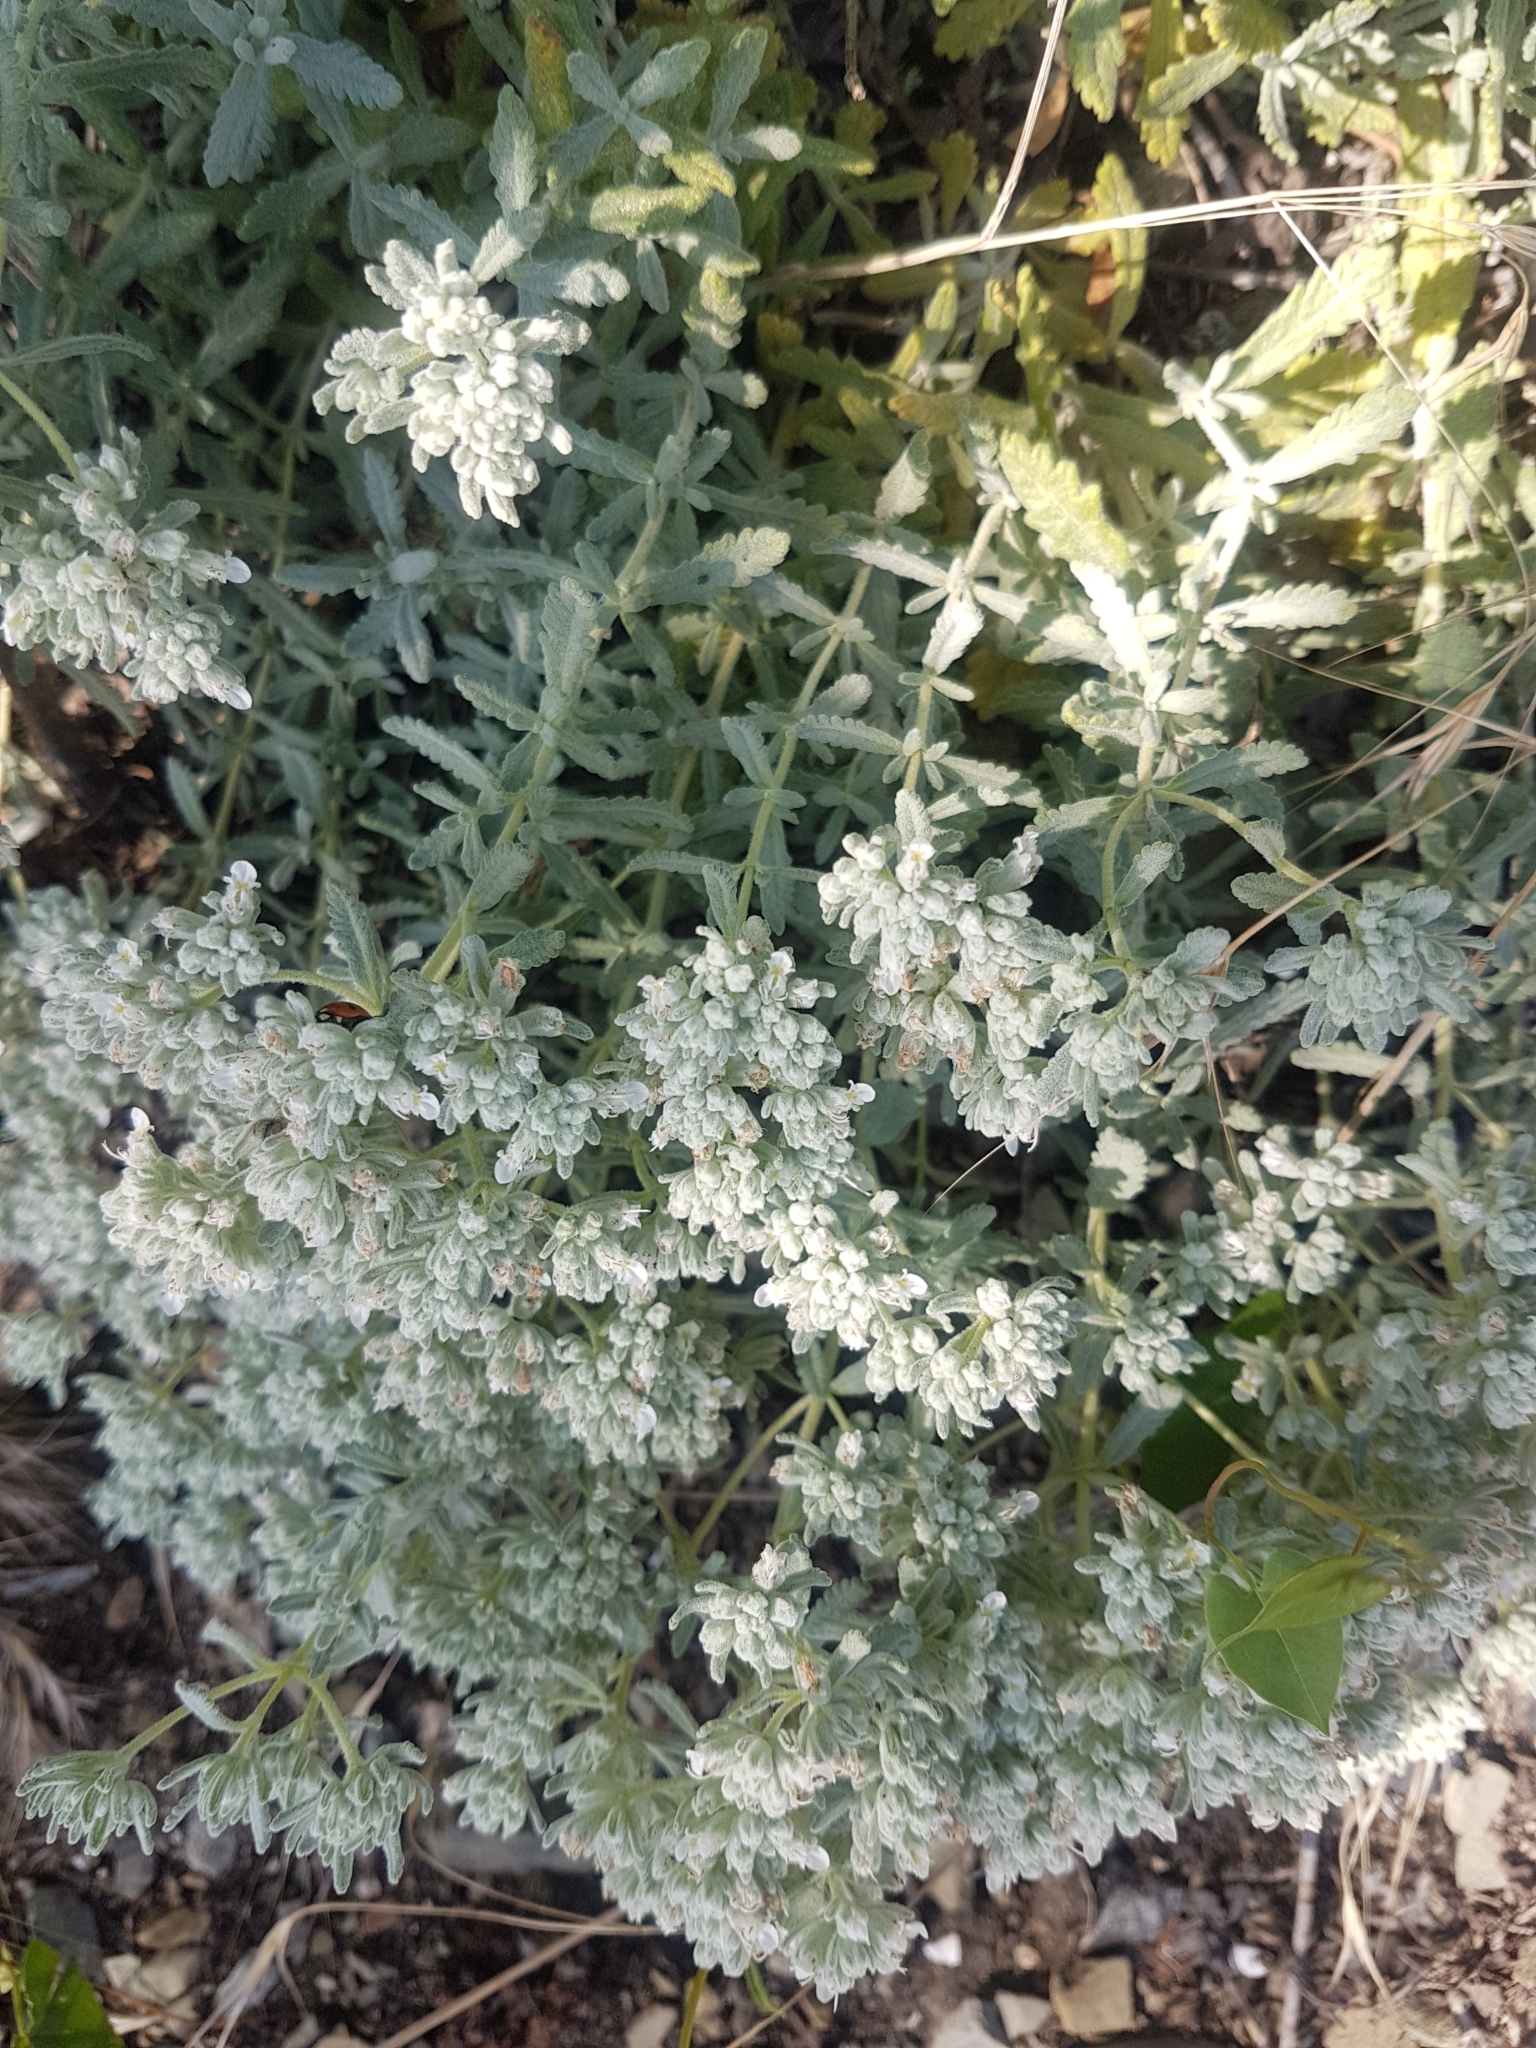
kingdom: Plantae
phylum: Tracheophyta
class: Magnoliopsida
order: Lamiales
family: Lamiaceae
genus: Teucrium
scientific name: Teucrium polium
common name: Poley
